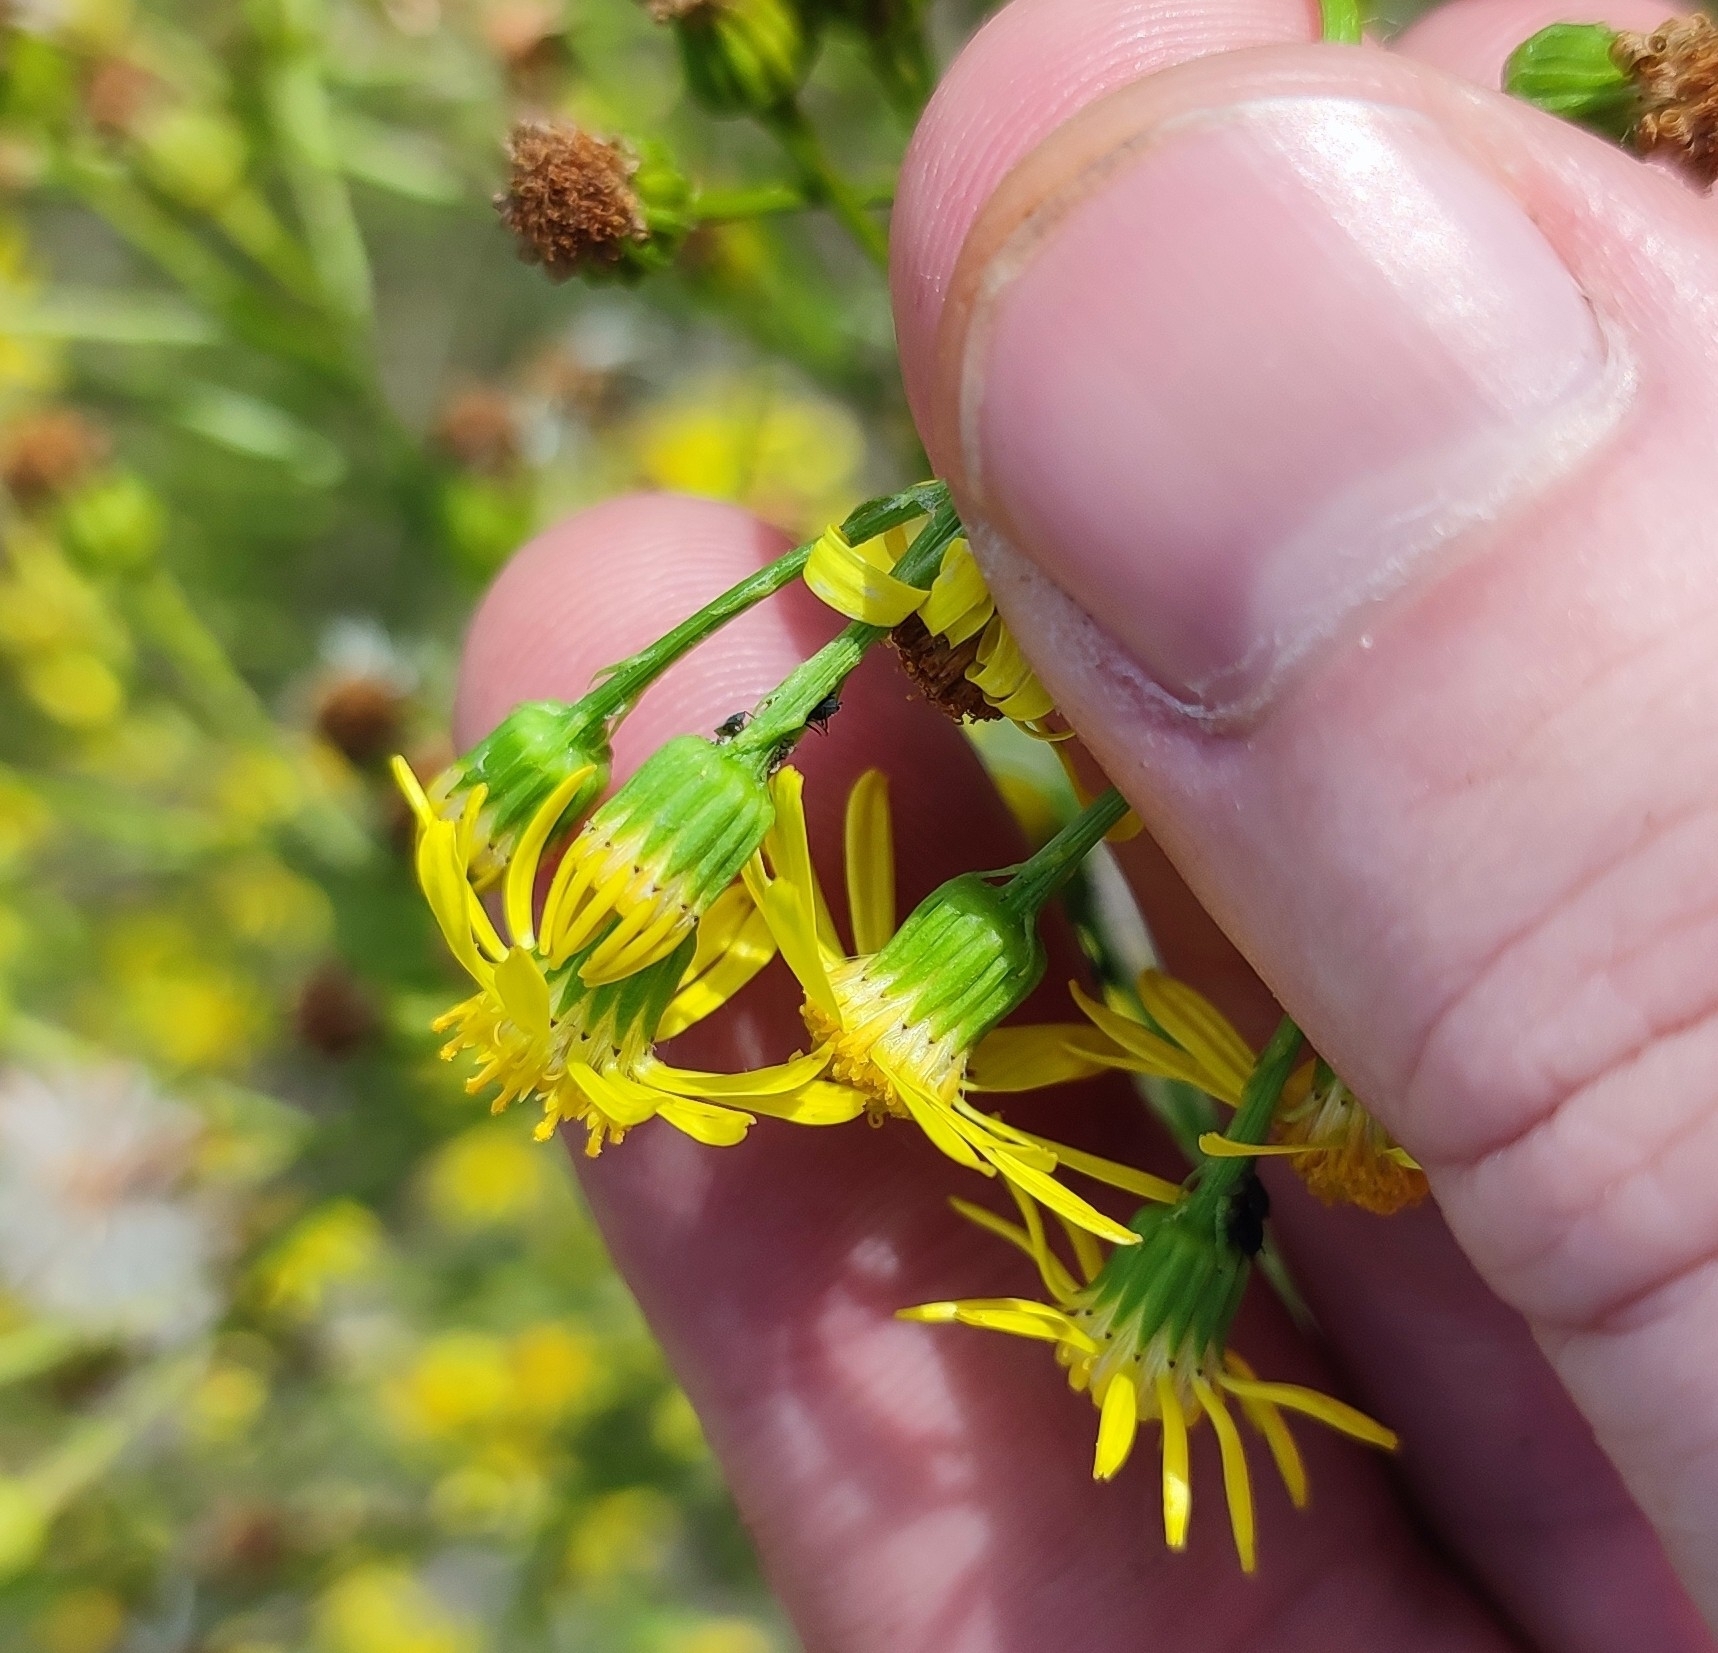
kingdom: Plantae
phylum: Tracheophyta
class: Magnoliopsida
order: Asterales
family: Asteraceae
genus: Jacobaea
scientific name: Jacobaea erucifolia
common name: Hoary ragwort
